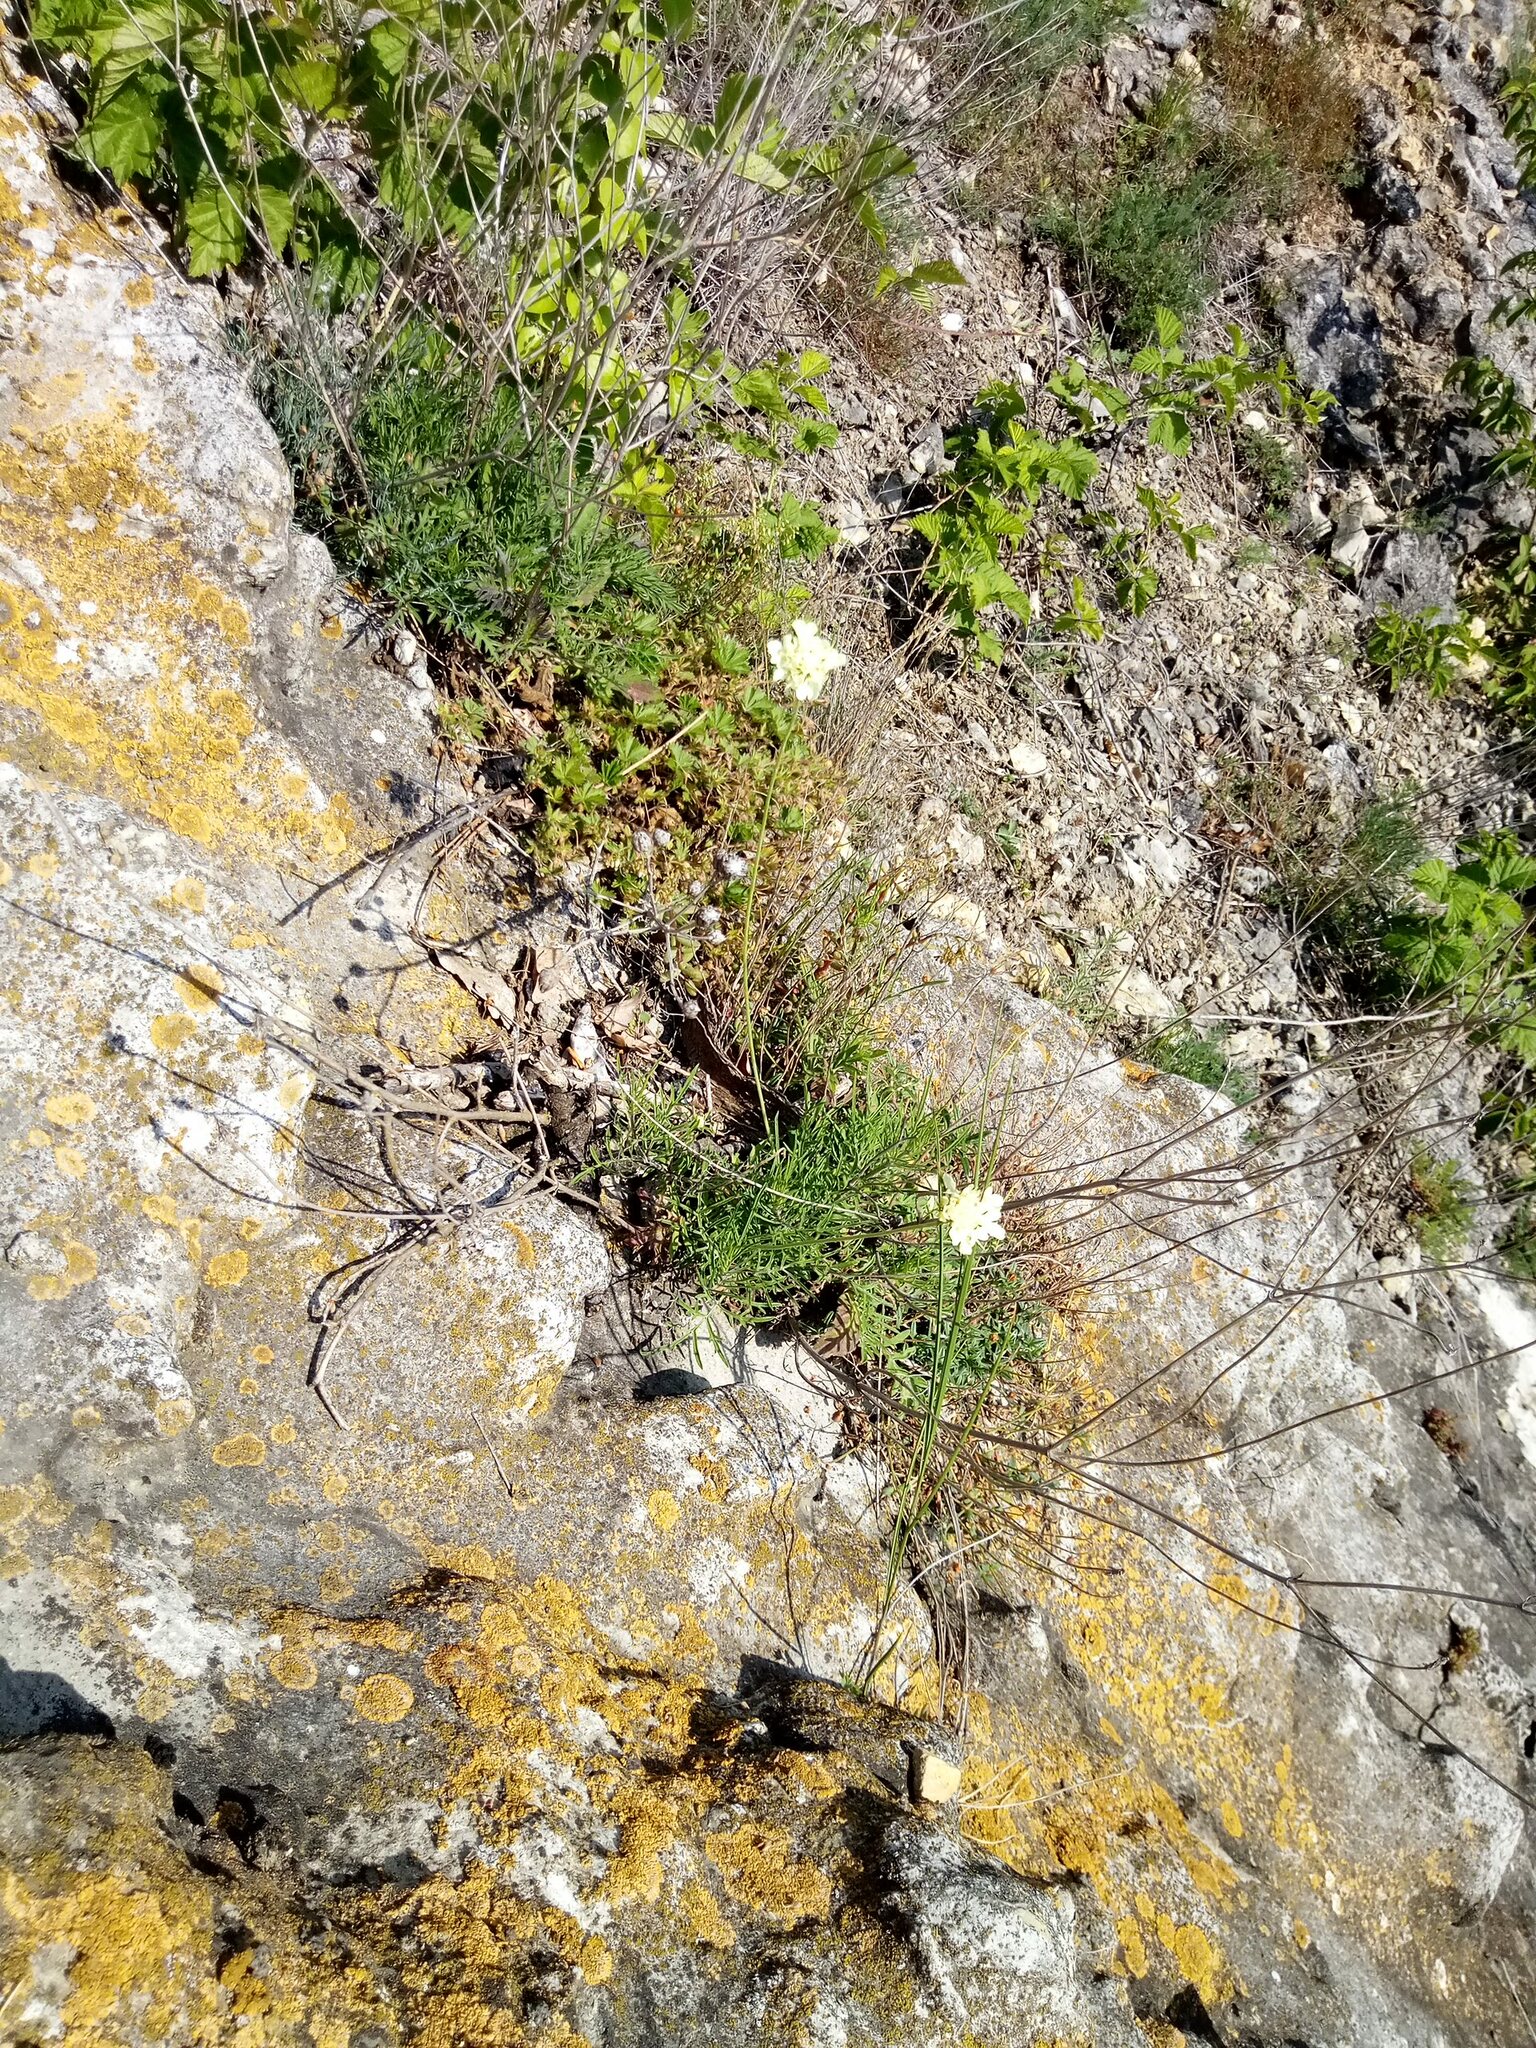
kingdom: Plantae
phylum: Tracheophyta
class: Magnoliopsida
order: Dipsacales
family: Caprifoliaceae
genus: Scabiosa
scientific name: Scabiosa ochroleuca
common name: Cream pincushions
